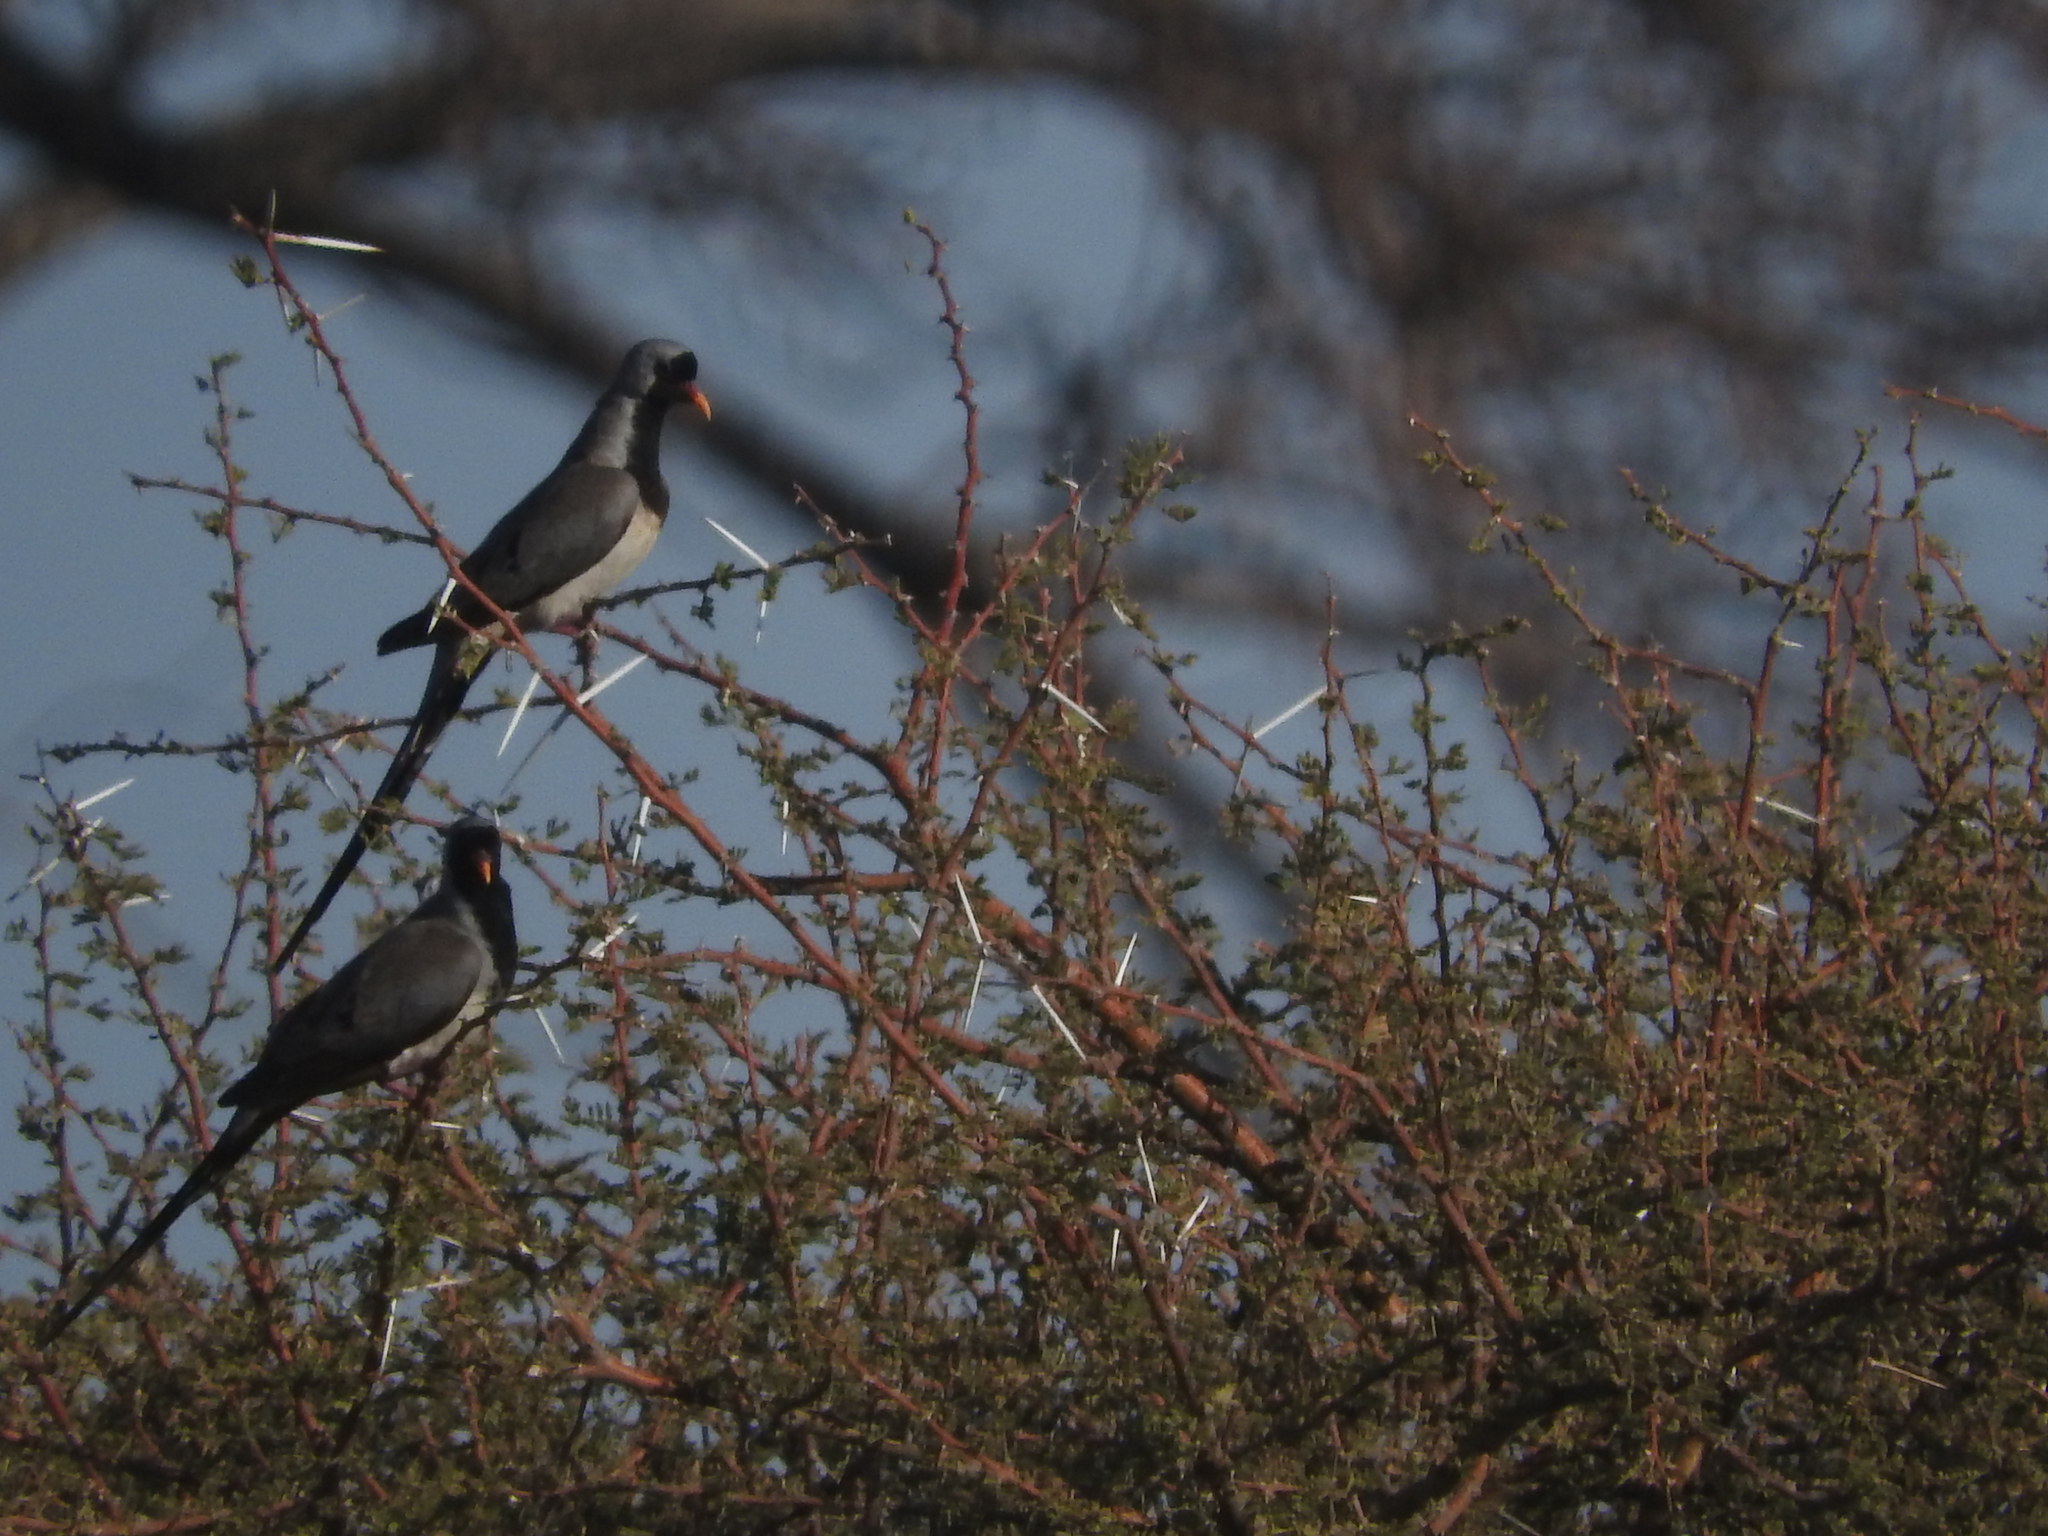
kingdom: Animalia
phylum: Chordata
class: Aves
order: Columbiformes
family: Columbidae
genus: Oena
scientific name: Oena capensis
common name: Namaqua dove
